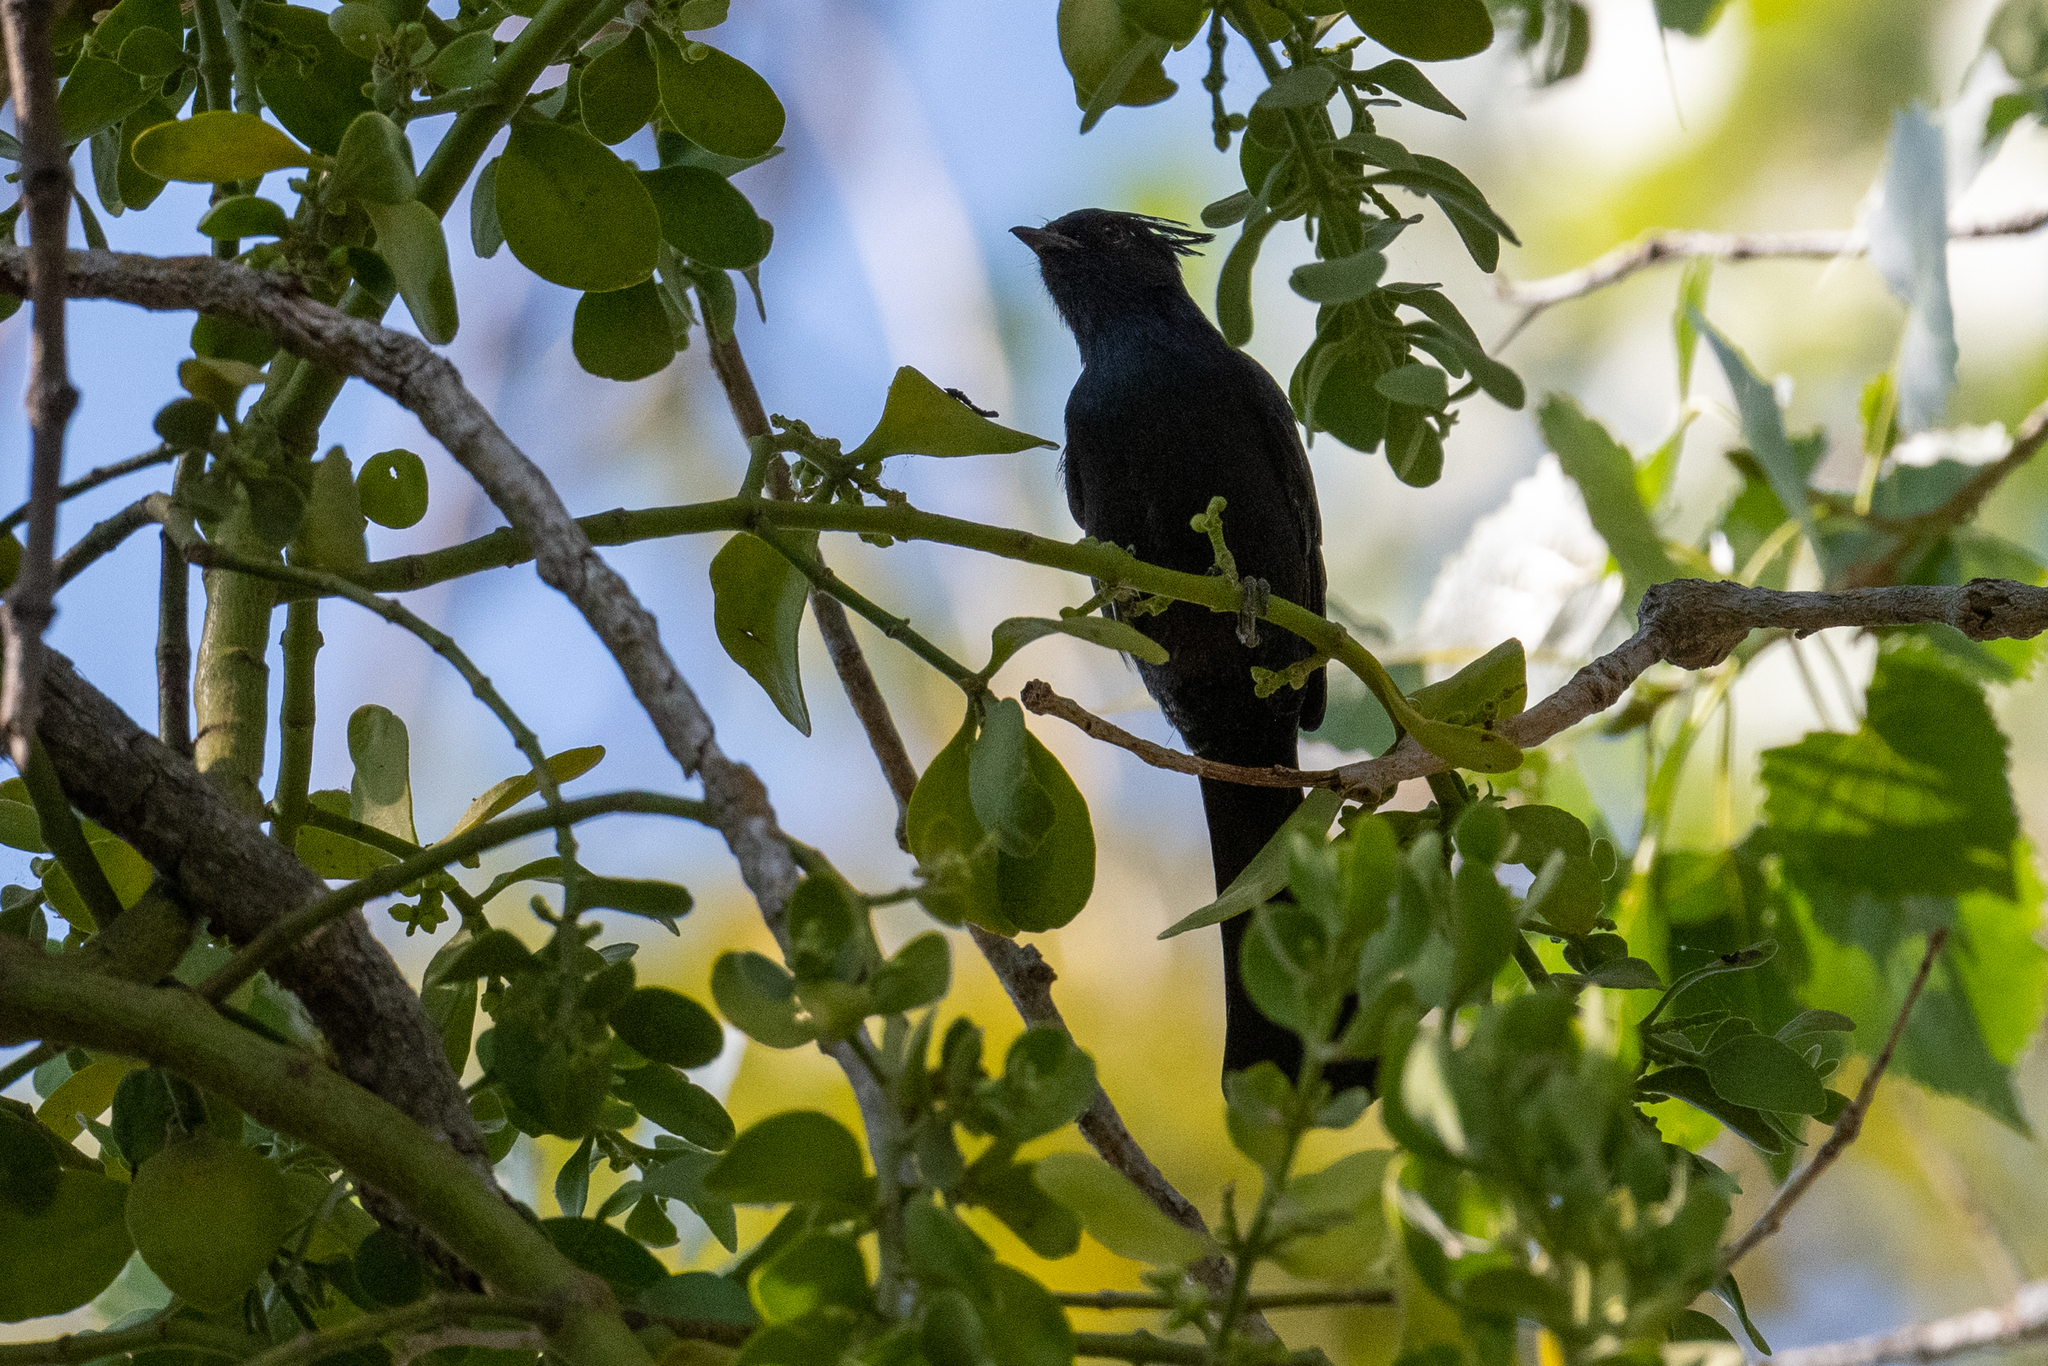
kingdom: Animalia
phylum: Chordata
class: Aves
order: Passeriformes
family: Ptilogonatidae
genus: Phainopepla
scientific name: Phainopepla nitens
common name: Phainopepla
